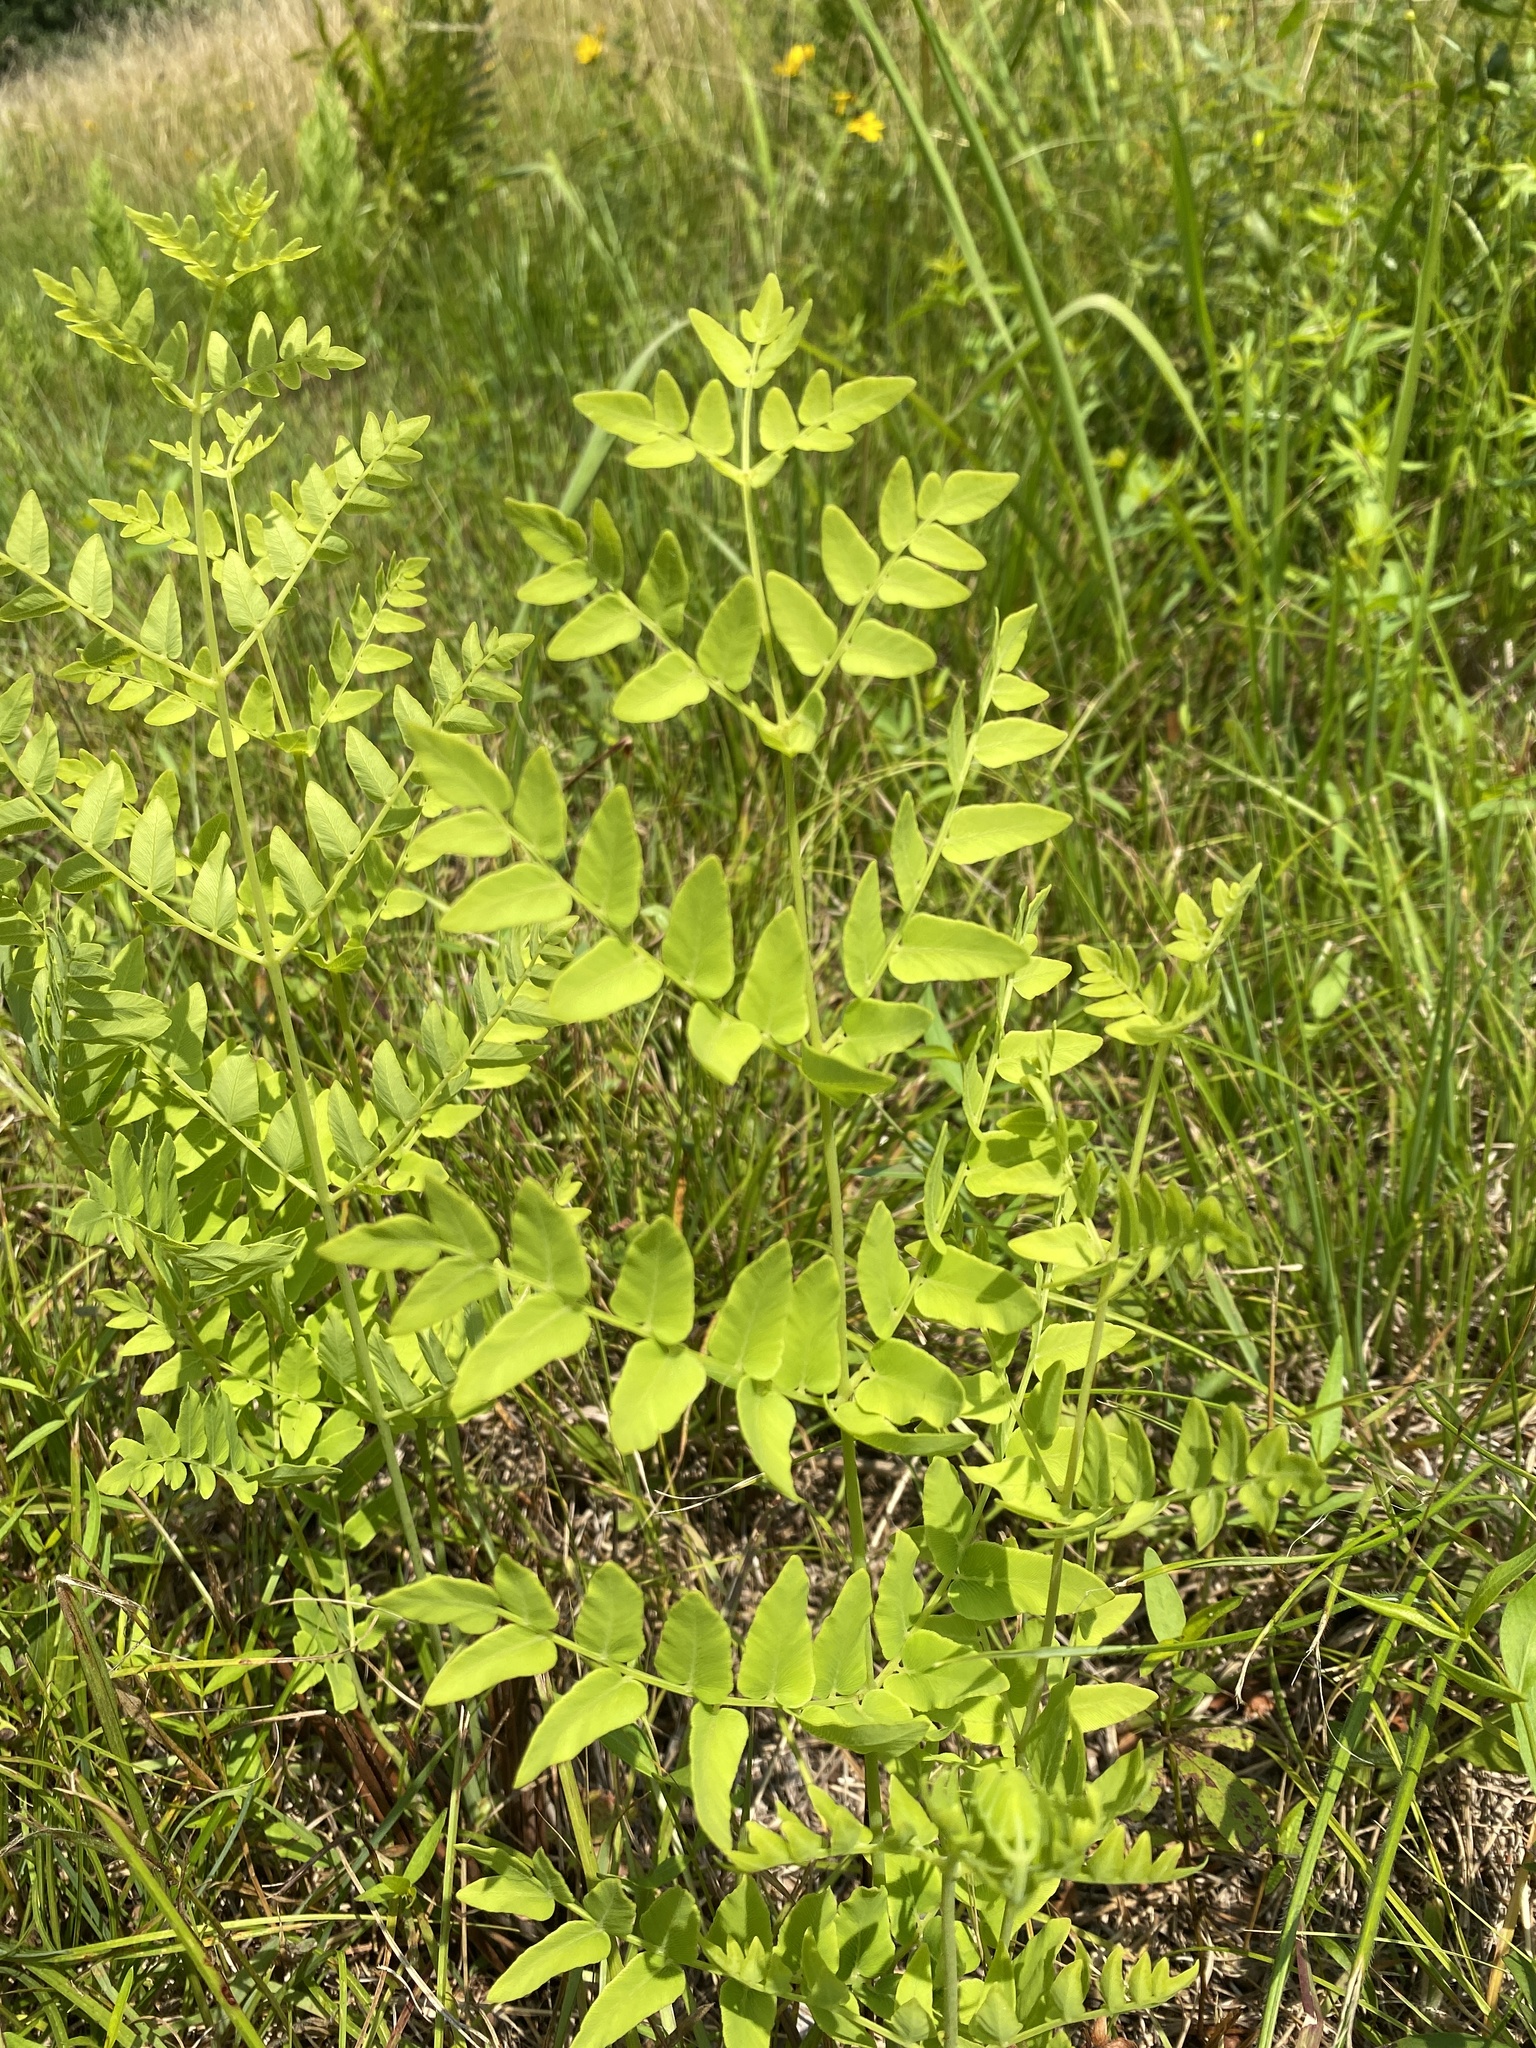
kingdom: Plantae
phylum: Tracheophyta
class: Polypodiopsida
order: Osmundales
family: Osmundaceae
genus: Osmunda
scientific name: Osmunda spectabilis
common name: American royal fern
